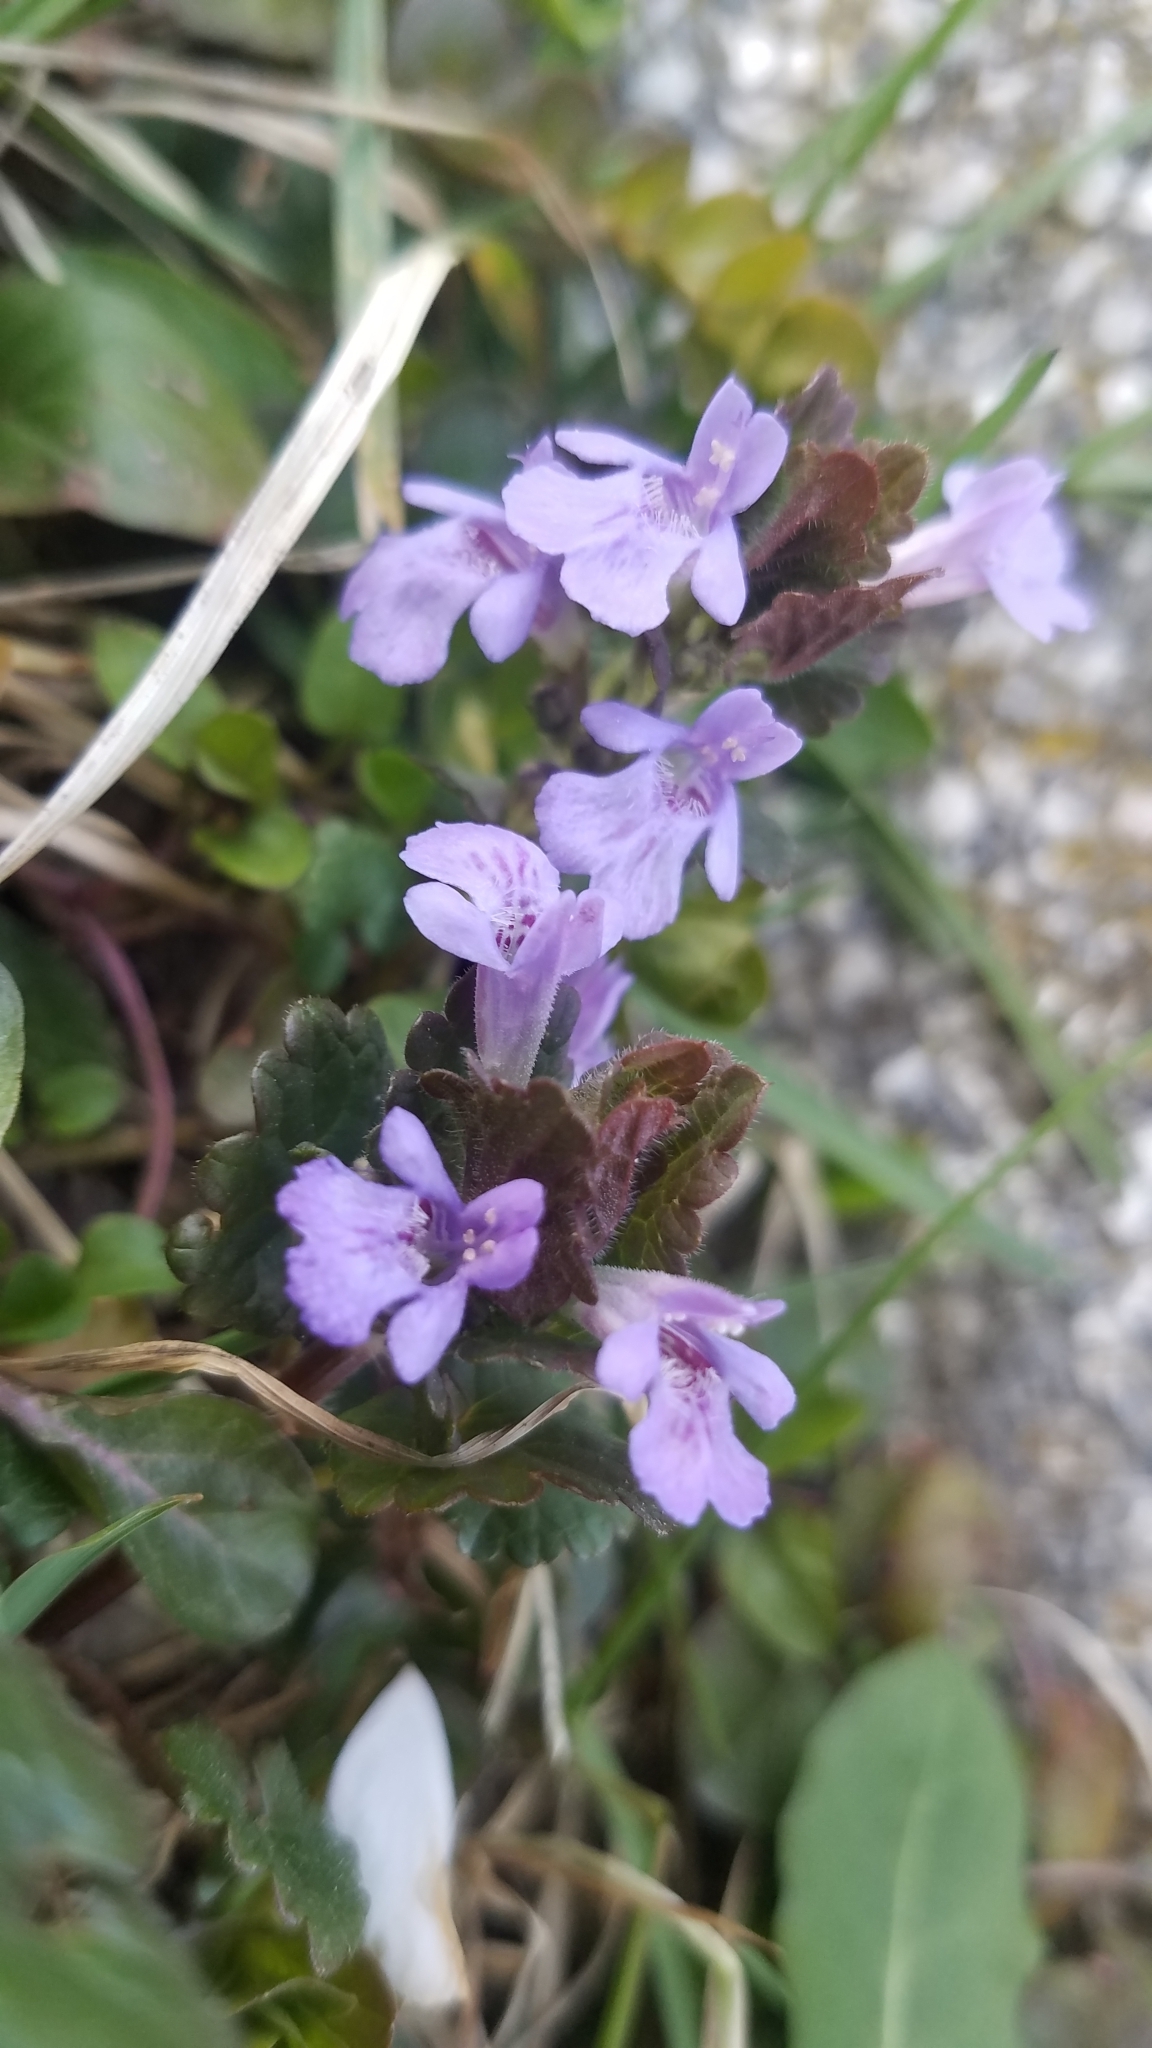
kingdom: Plantae
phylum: Tracheophyta
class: Magnoliopsida
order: Lamiales
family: Lamiaceae
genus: Glechoma
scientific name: Glechoma hederacea
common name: Ground ivy
